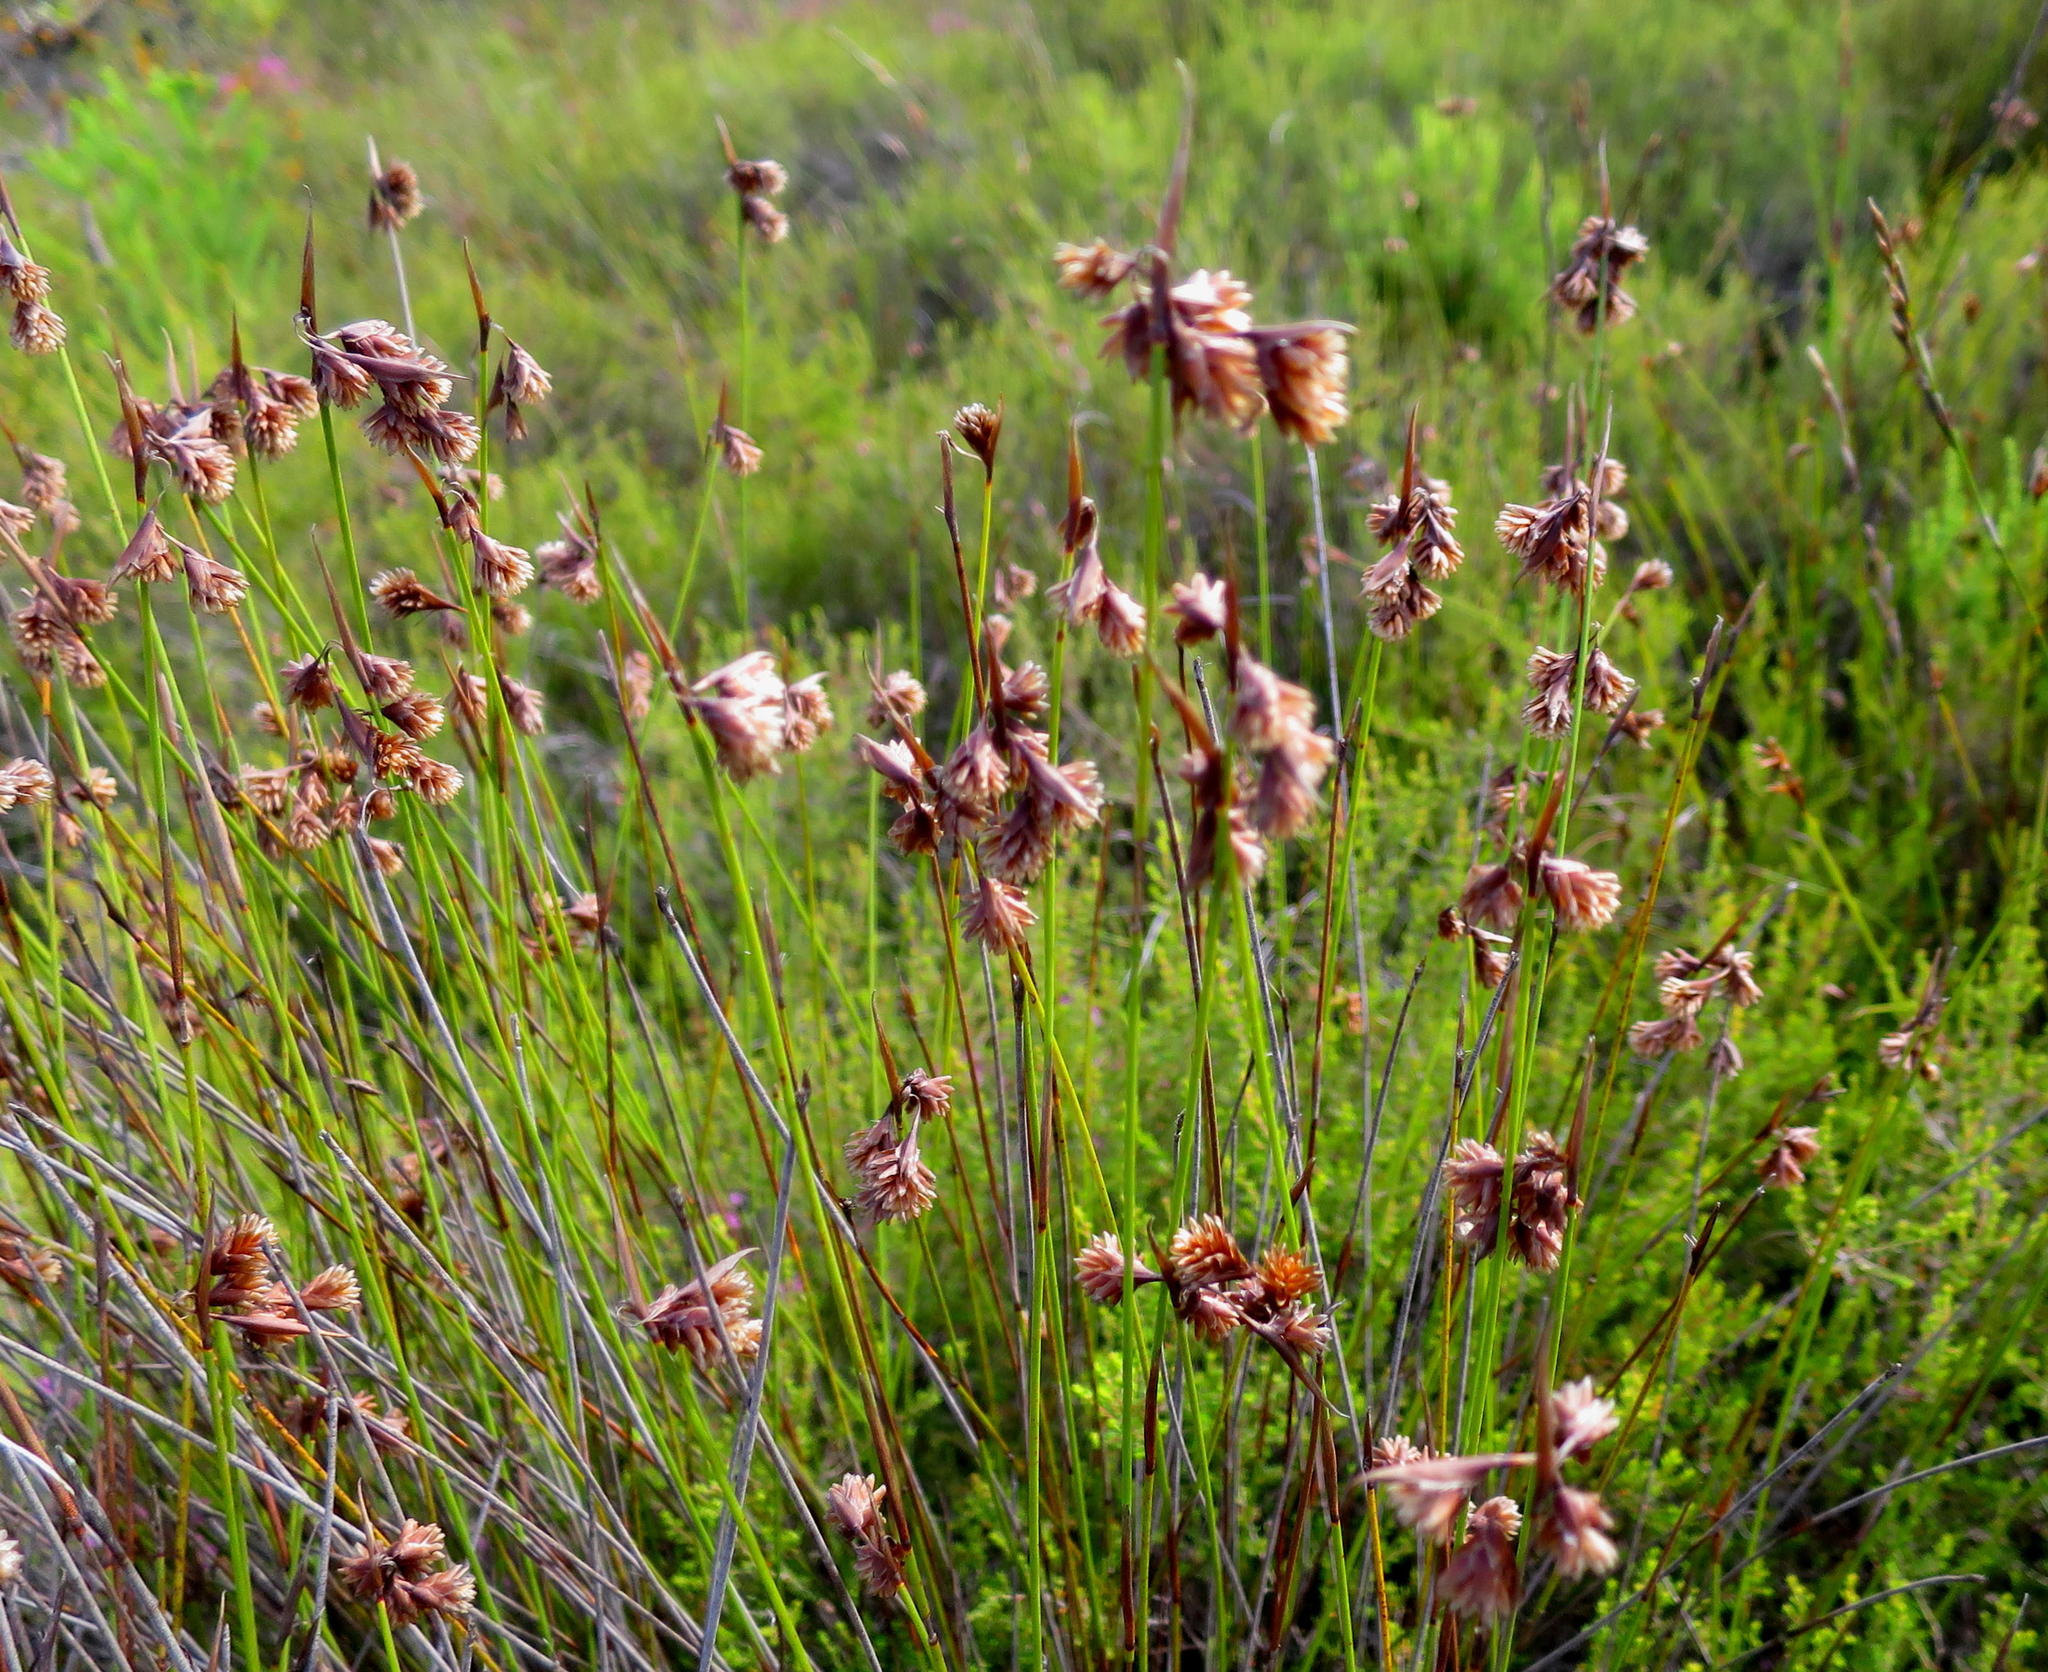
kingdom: Plantae
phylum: Tracheophyta
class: Liliopsida
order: Poales
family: Restionaceae
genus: Staberoha
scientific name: Staberoha cernua
